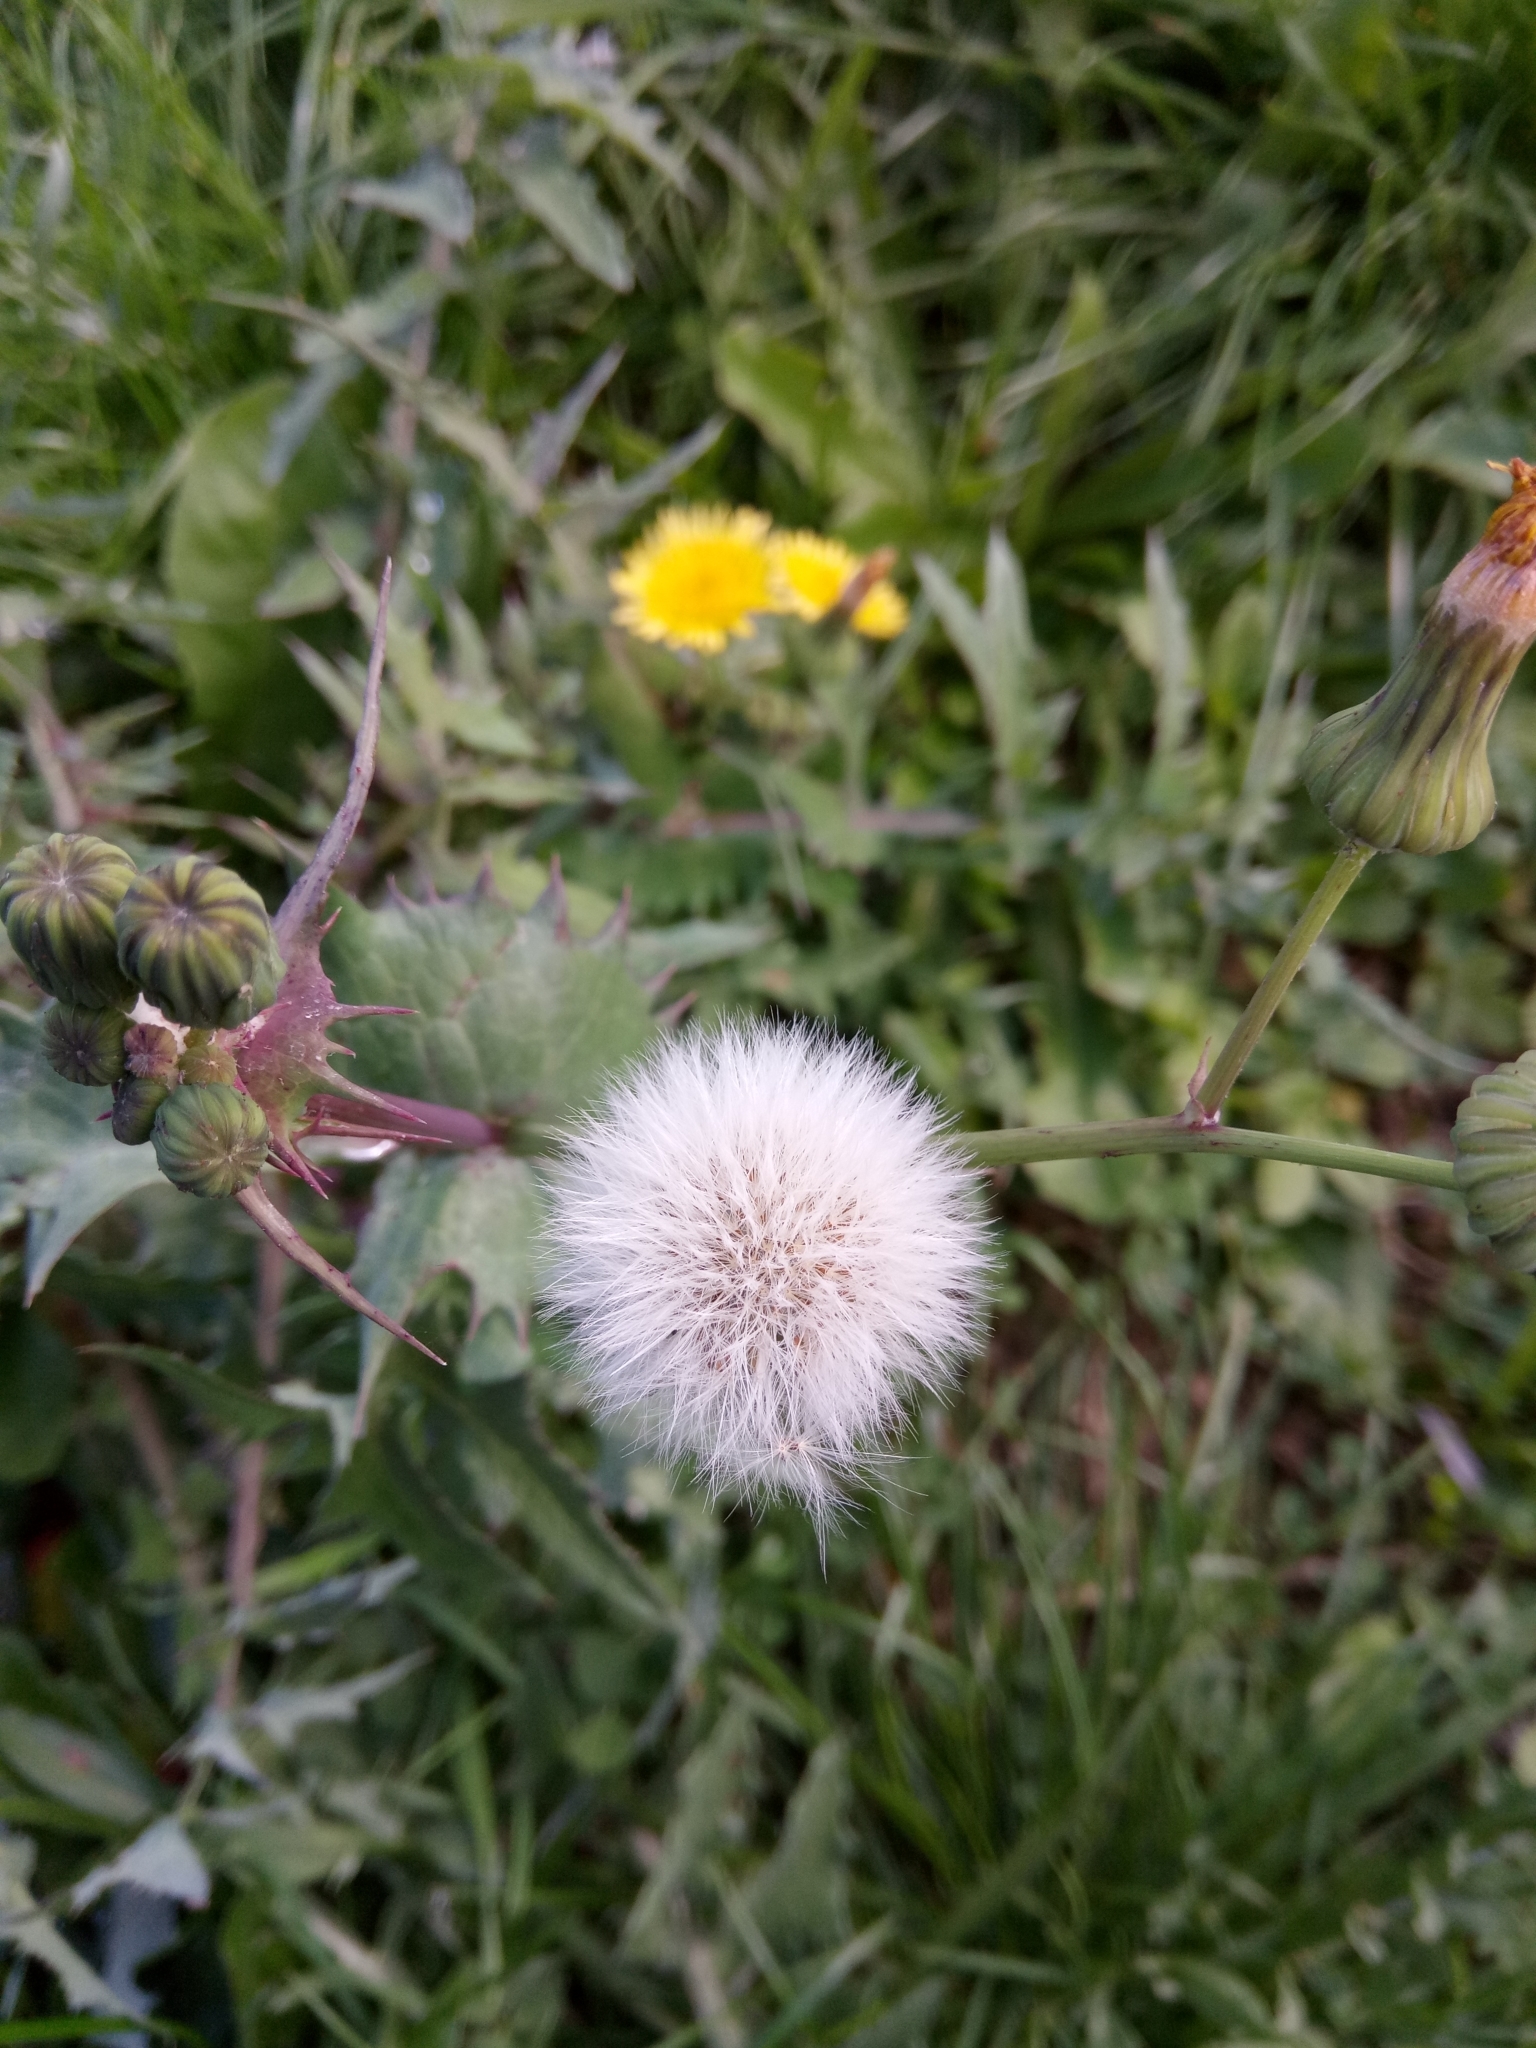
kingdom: Plantae
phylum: Tracheophyta
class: Magnoliopsida
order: Asterales
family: Asteraceae
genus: Sonchus
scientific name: Sonchus oleraceus
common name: Common sowthistle
